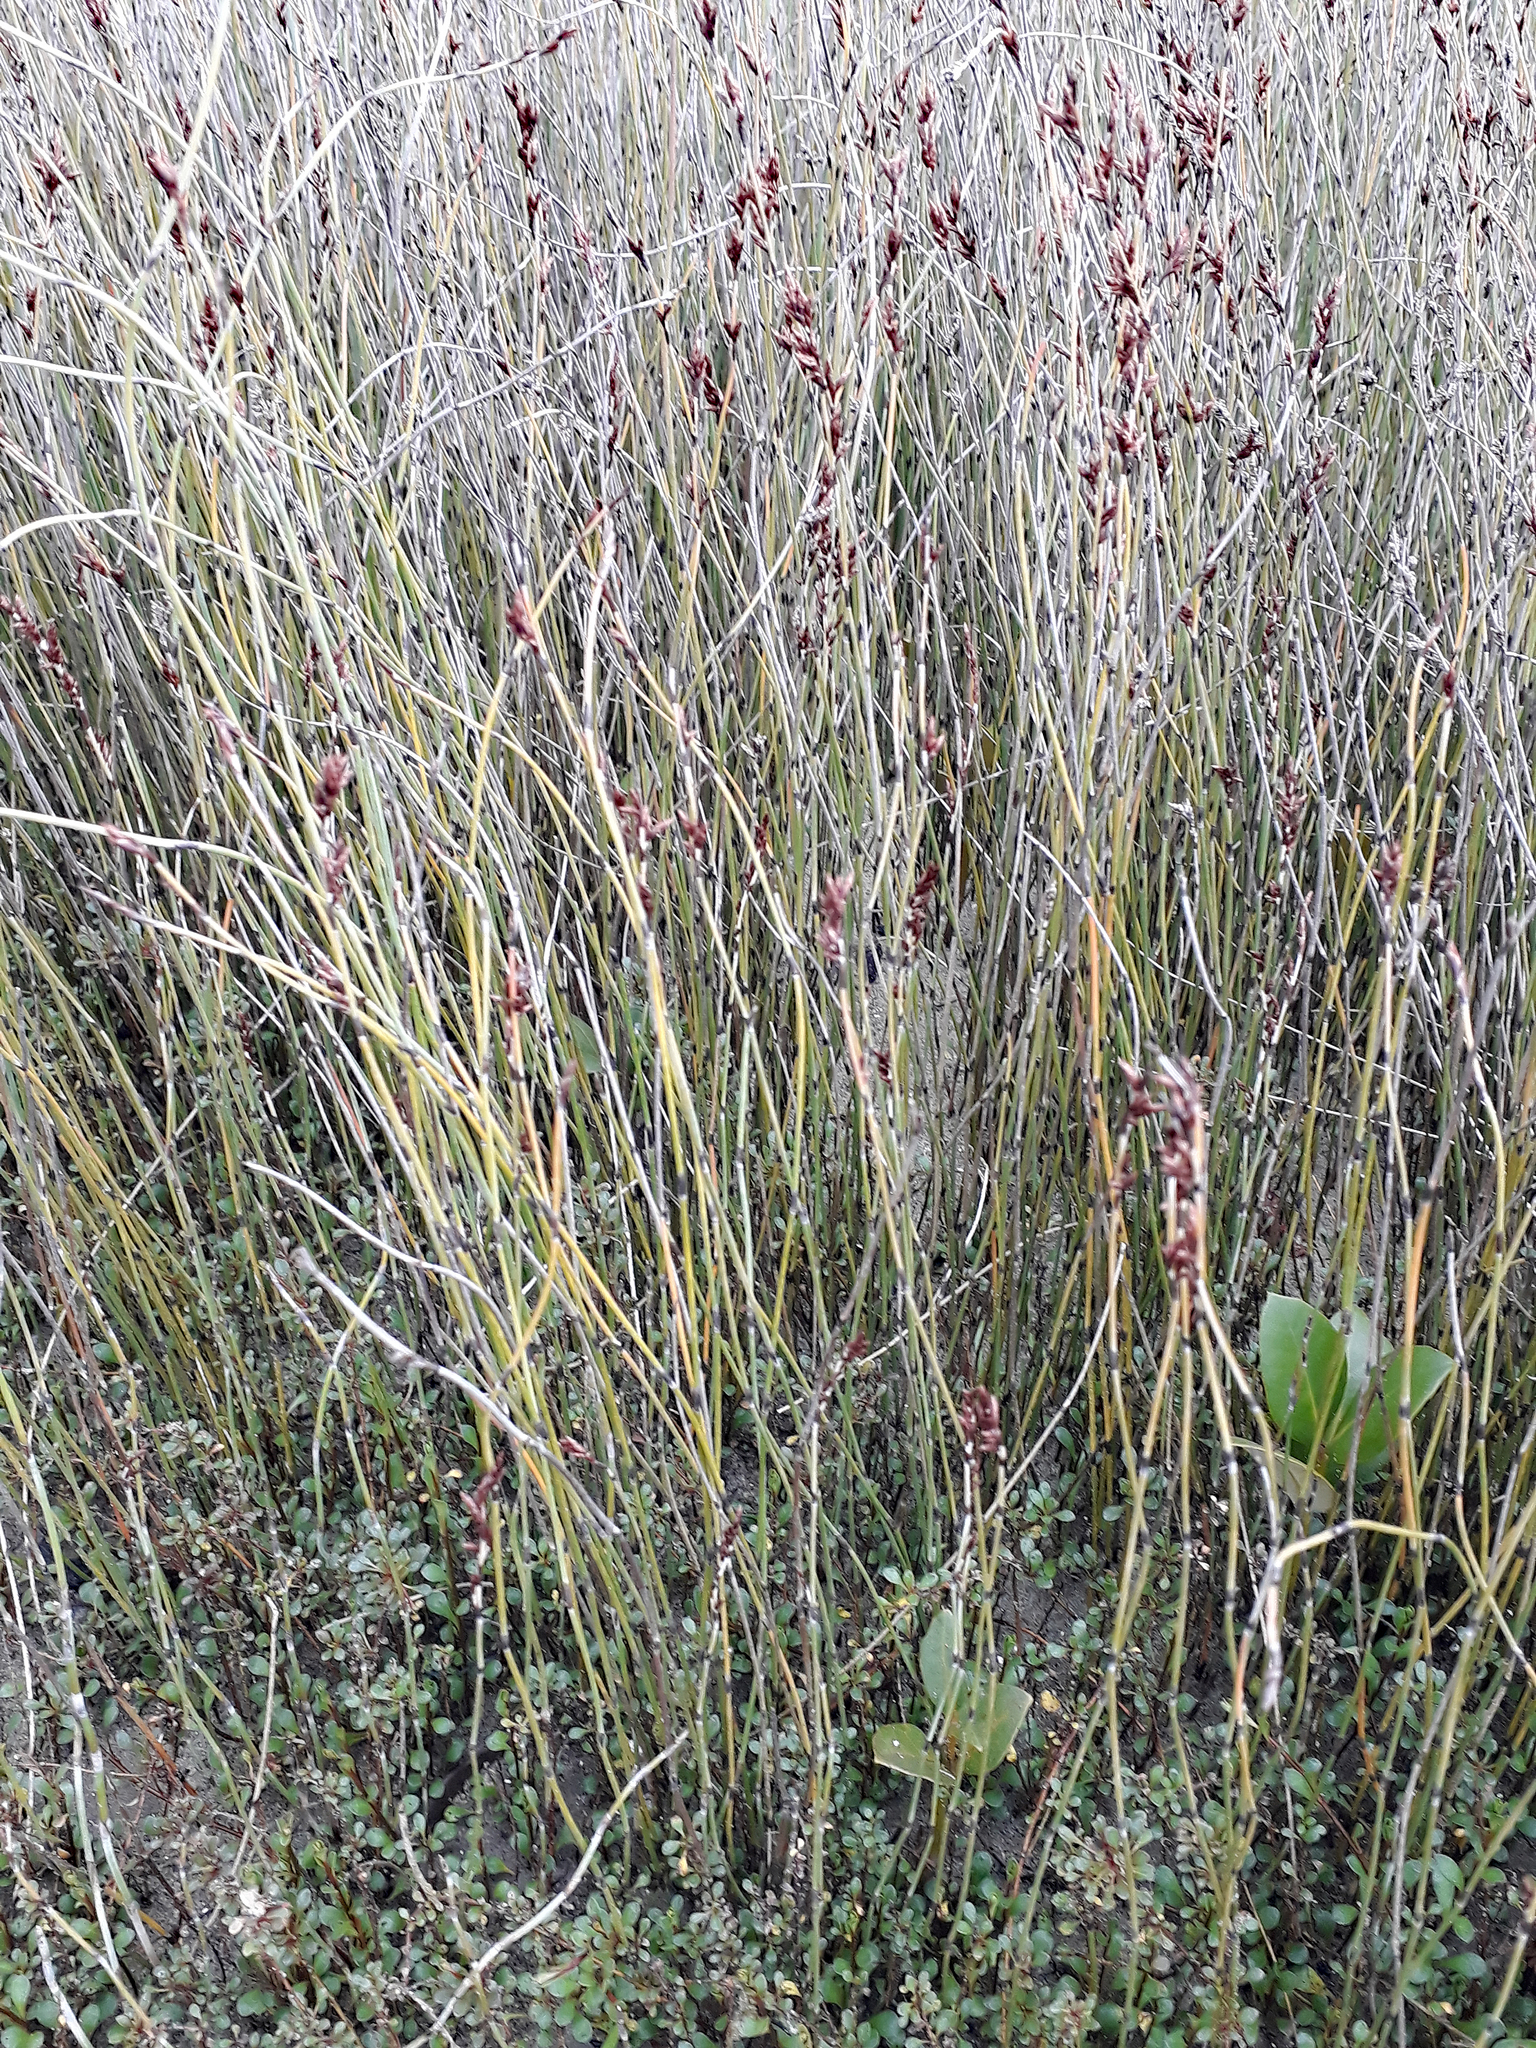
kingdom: Plantae
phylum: Tracheophyta
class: Liliopsida
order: Poales
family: Restionaceae
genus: Apodasmia
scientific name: Apodasmia similis
